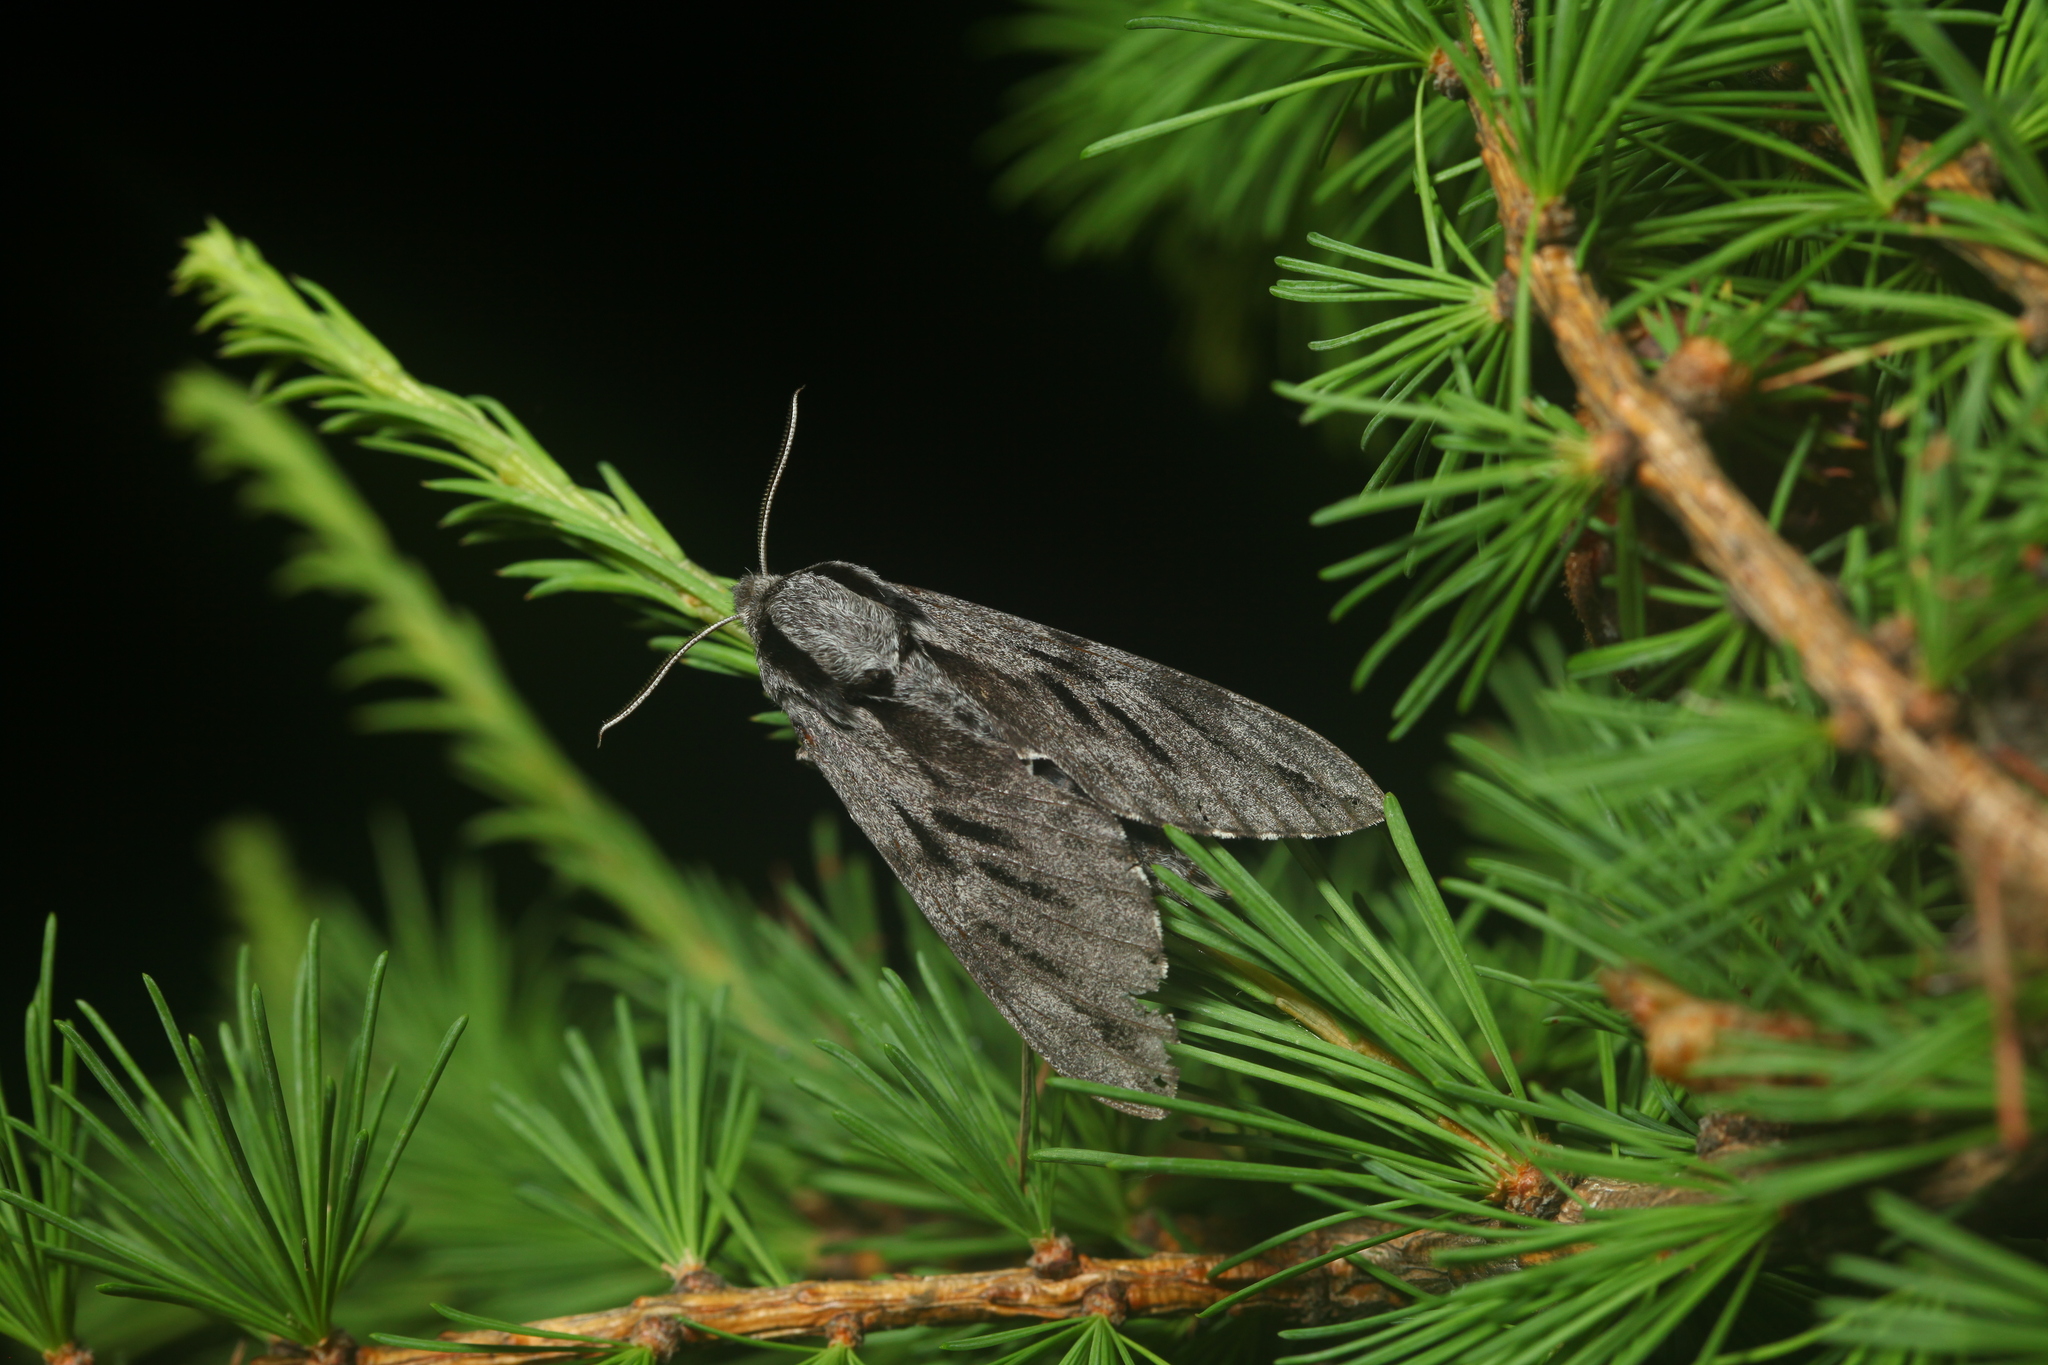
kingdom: Animalia
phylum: Arthropoda
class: Insecta
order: Lepidoptera
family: Sphingidae
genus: Sphinx
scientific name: Sphinx morio
